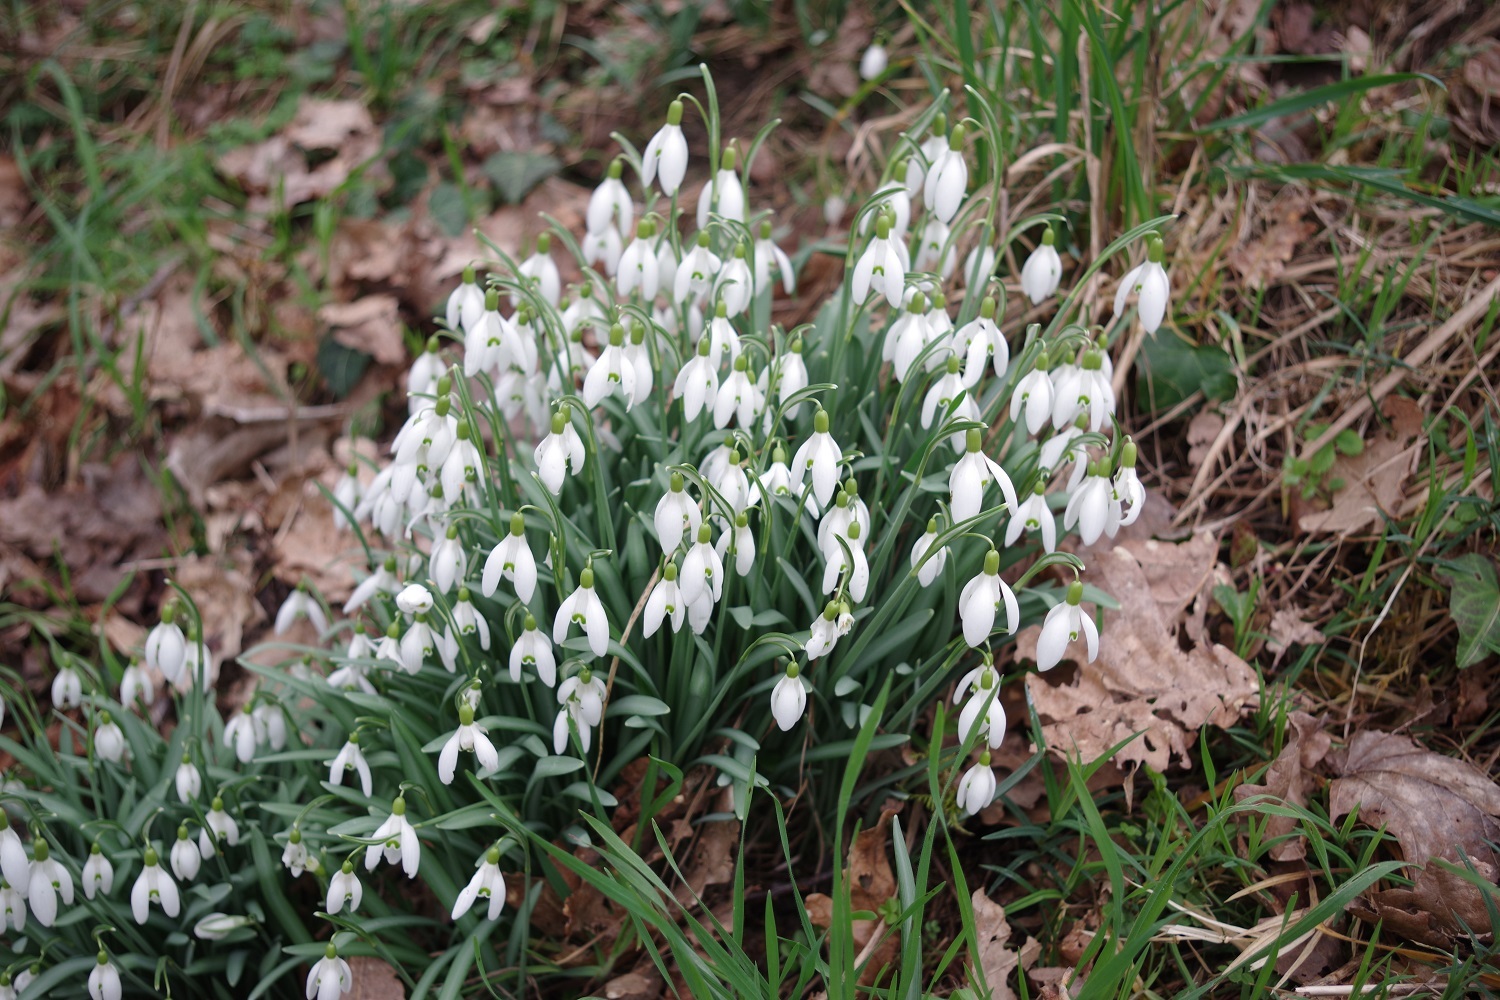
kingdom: Plantae
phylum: Tracheophyta
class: Liliopsida
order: Asparagales
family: Amaryllidaceae
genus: Galanthus
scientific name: Galanthus nivalis
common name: Snowdrop
